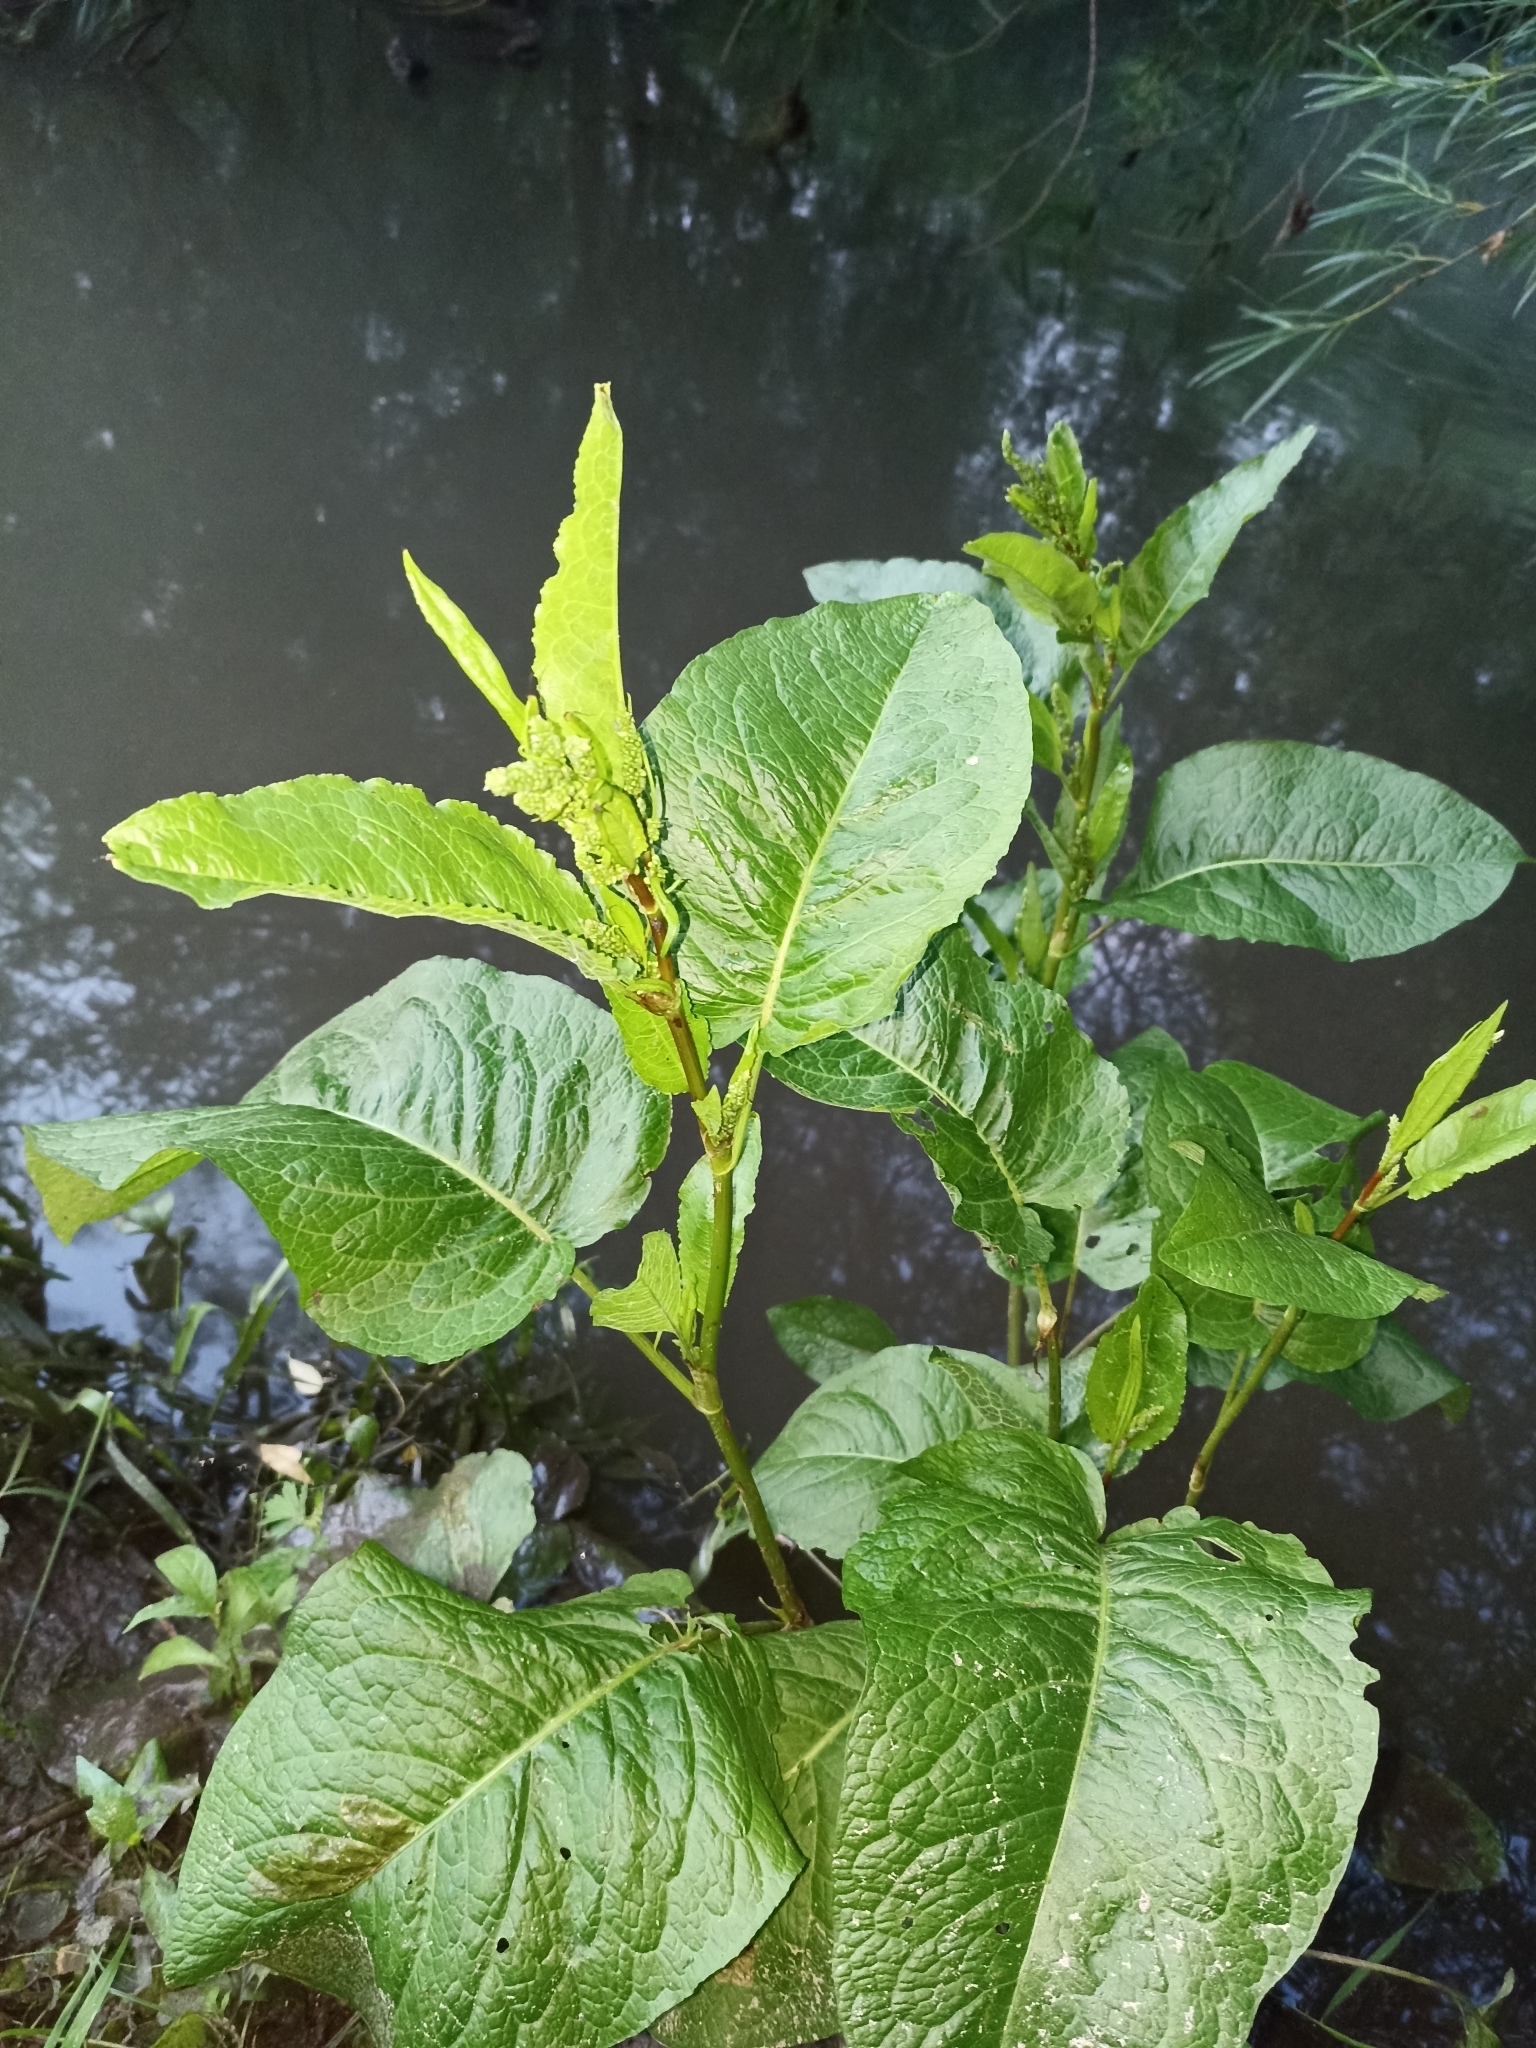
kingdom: Plantae
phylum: Tracheophyta
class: Magnoliopsida
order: Caryophyllales
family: Polygonaceae
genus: Rumex
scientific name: Rumex obtusifolius
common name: Bitter dock
